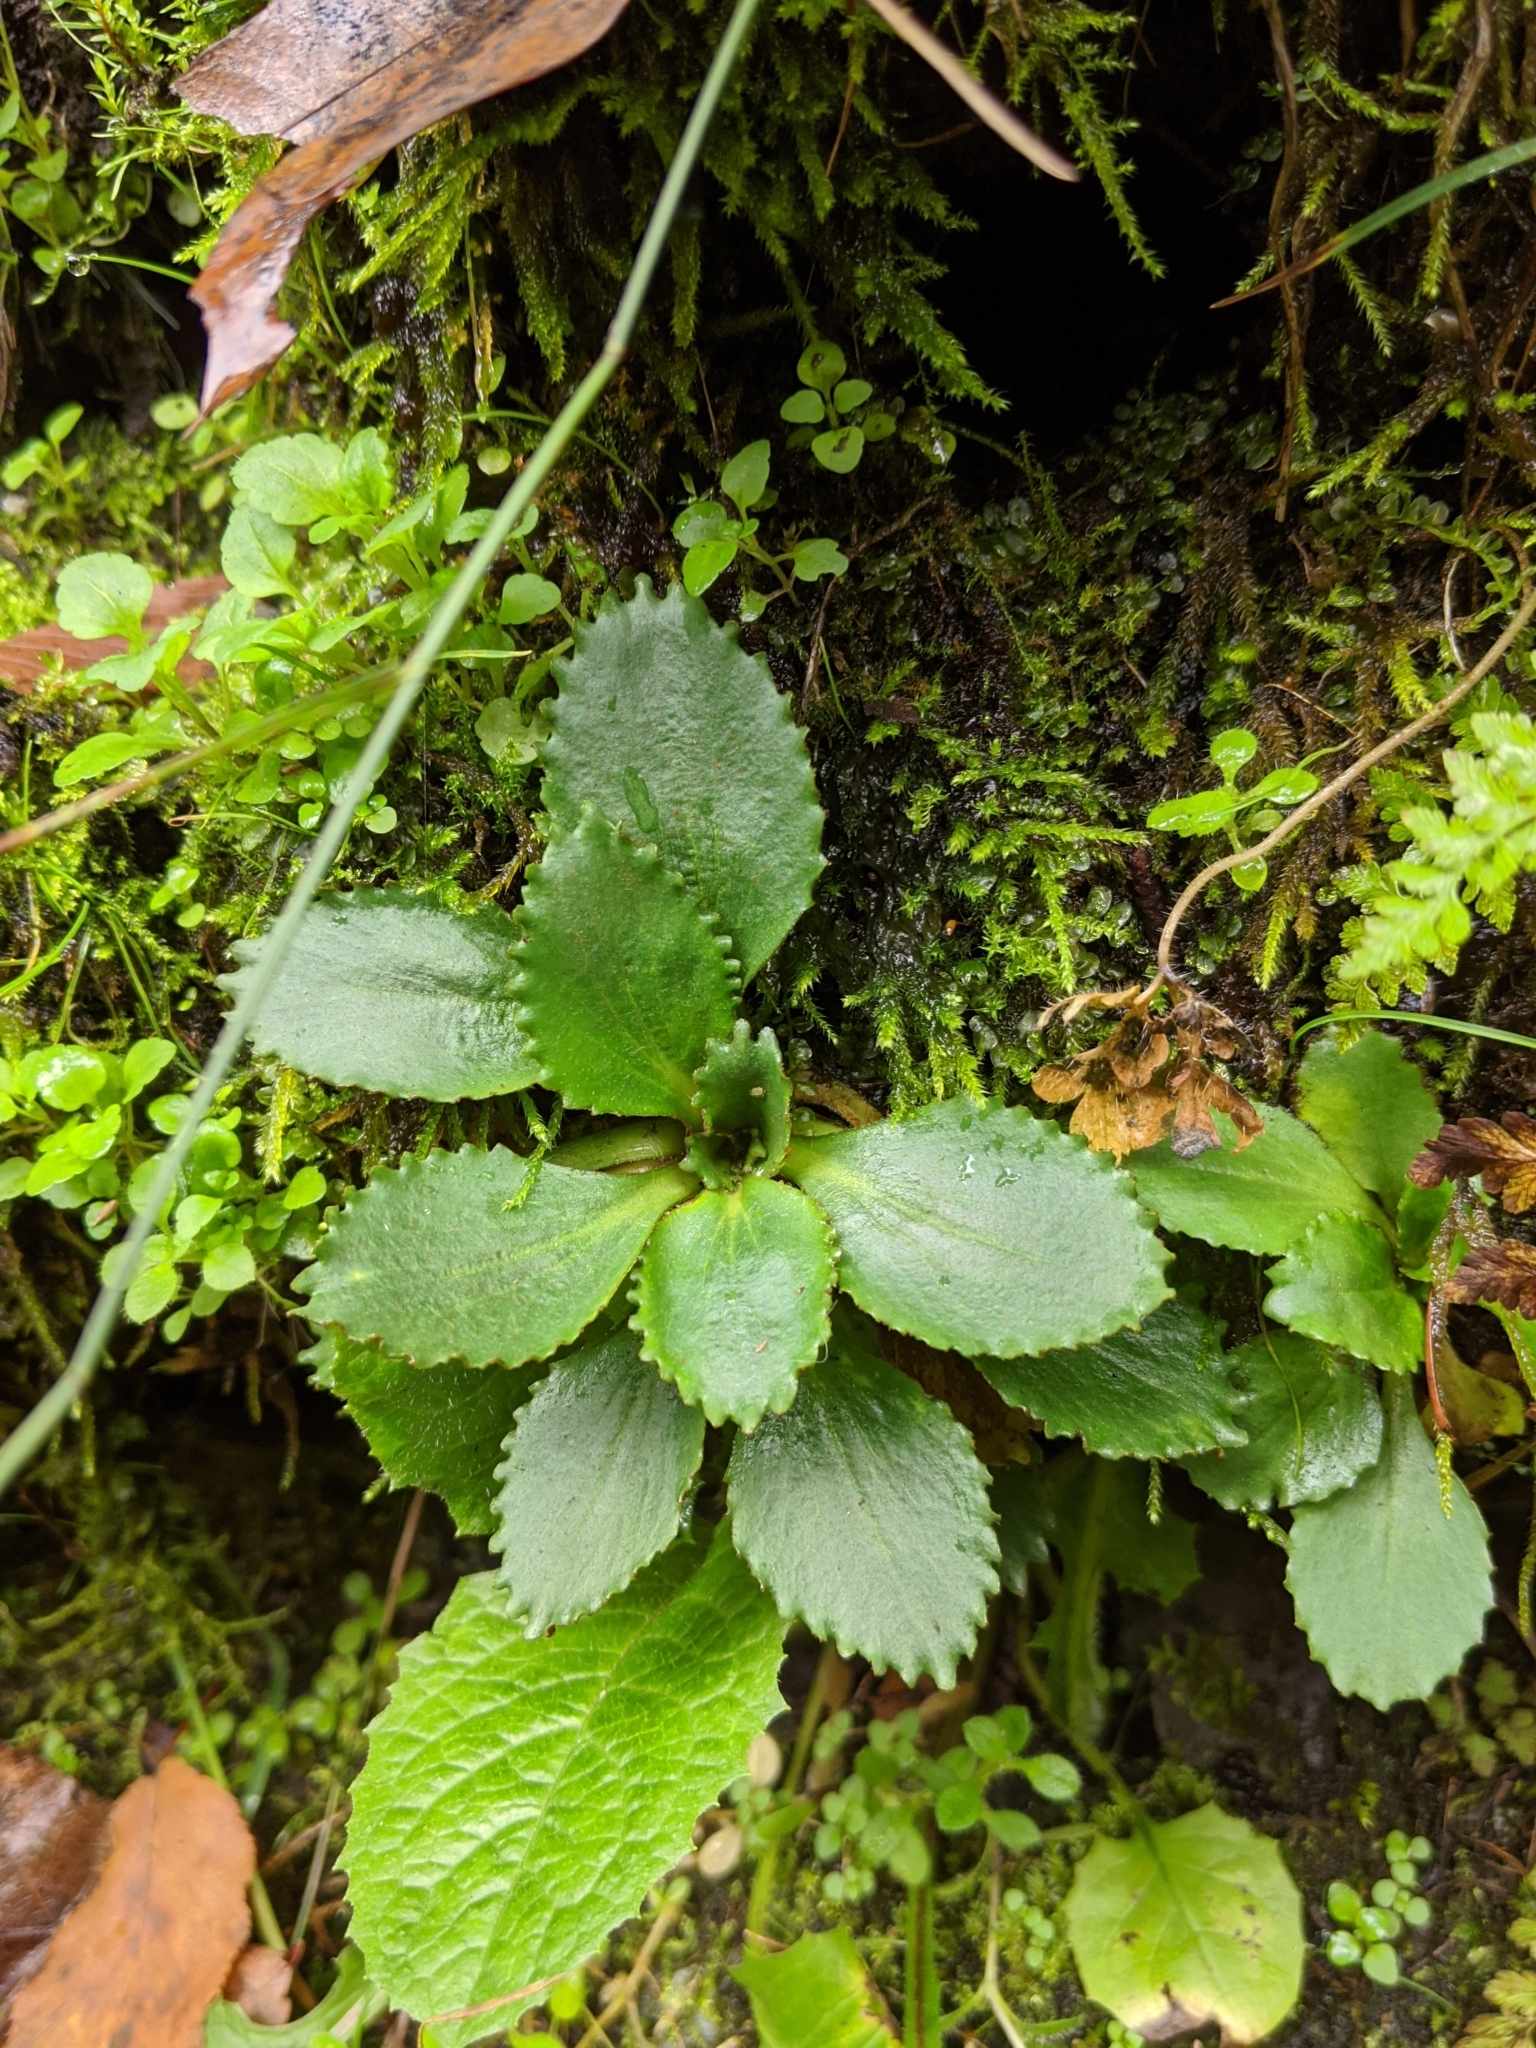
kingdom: Plantae
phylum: Tracheophyta
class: Magnoliopsida
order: Saxifragales
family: Saxifragaceae
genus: Micranthes
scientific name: Micranthes virginiensis
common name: Early saxifrage
